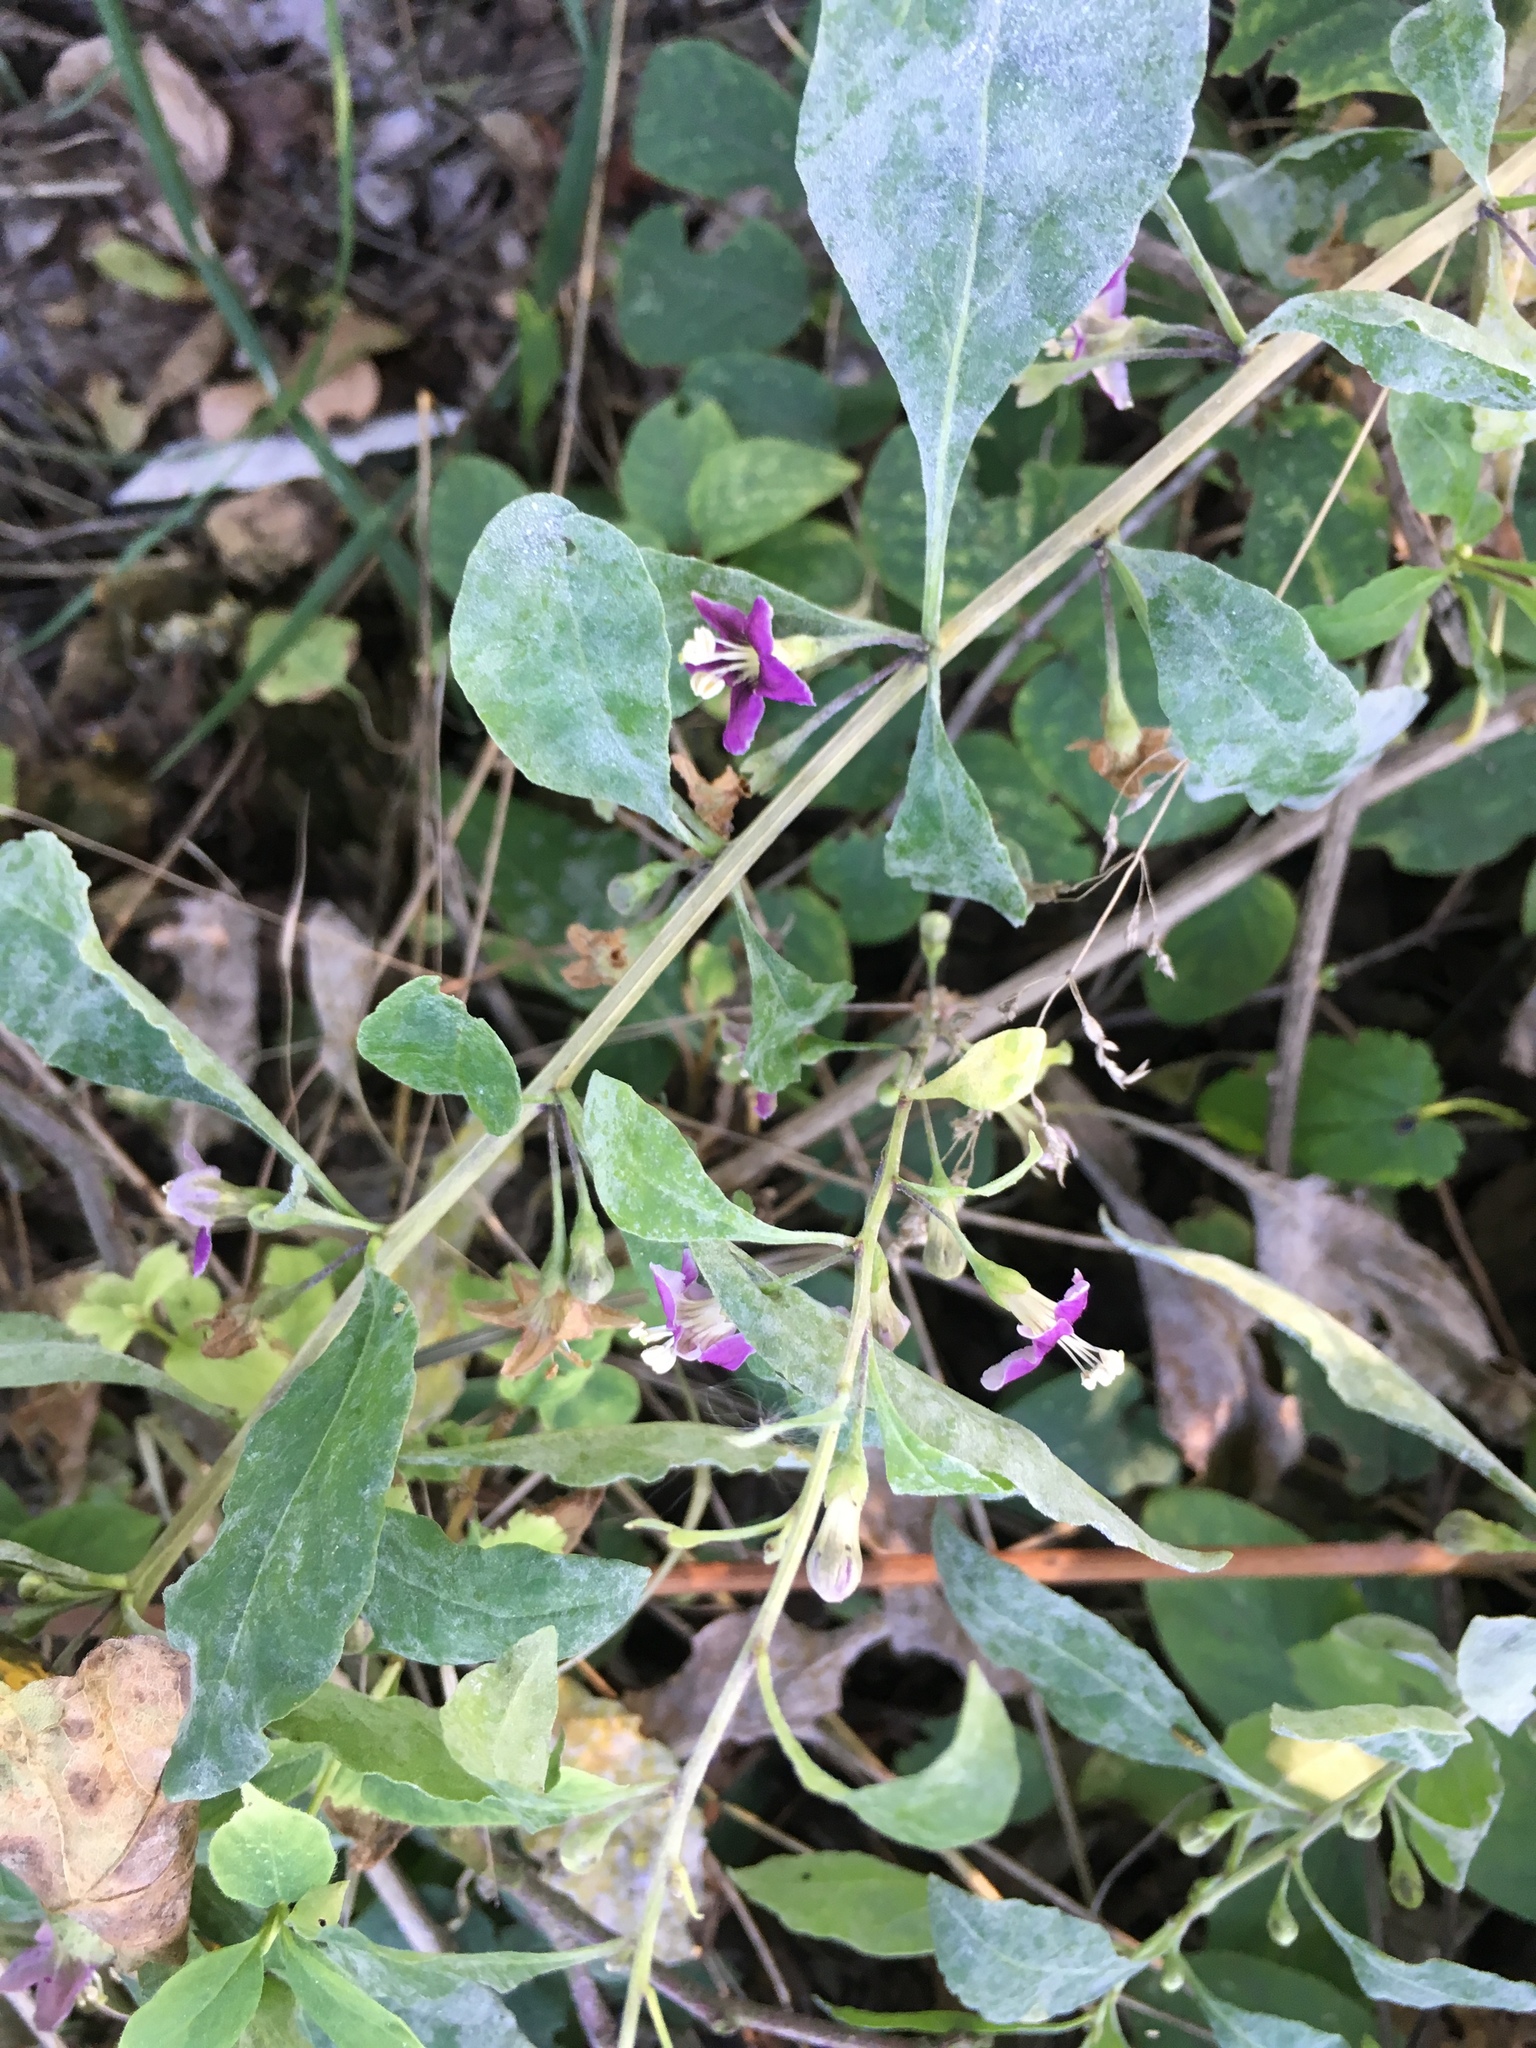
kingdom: Plantae
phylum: Tracheophyta
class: Magnoliopsida
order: Solanales
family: Solanaceae
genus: Lycium
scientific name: Lycium chinense
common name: Chinese teaplant
